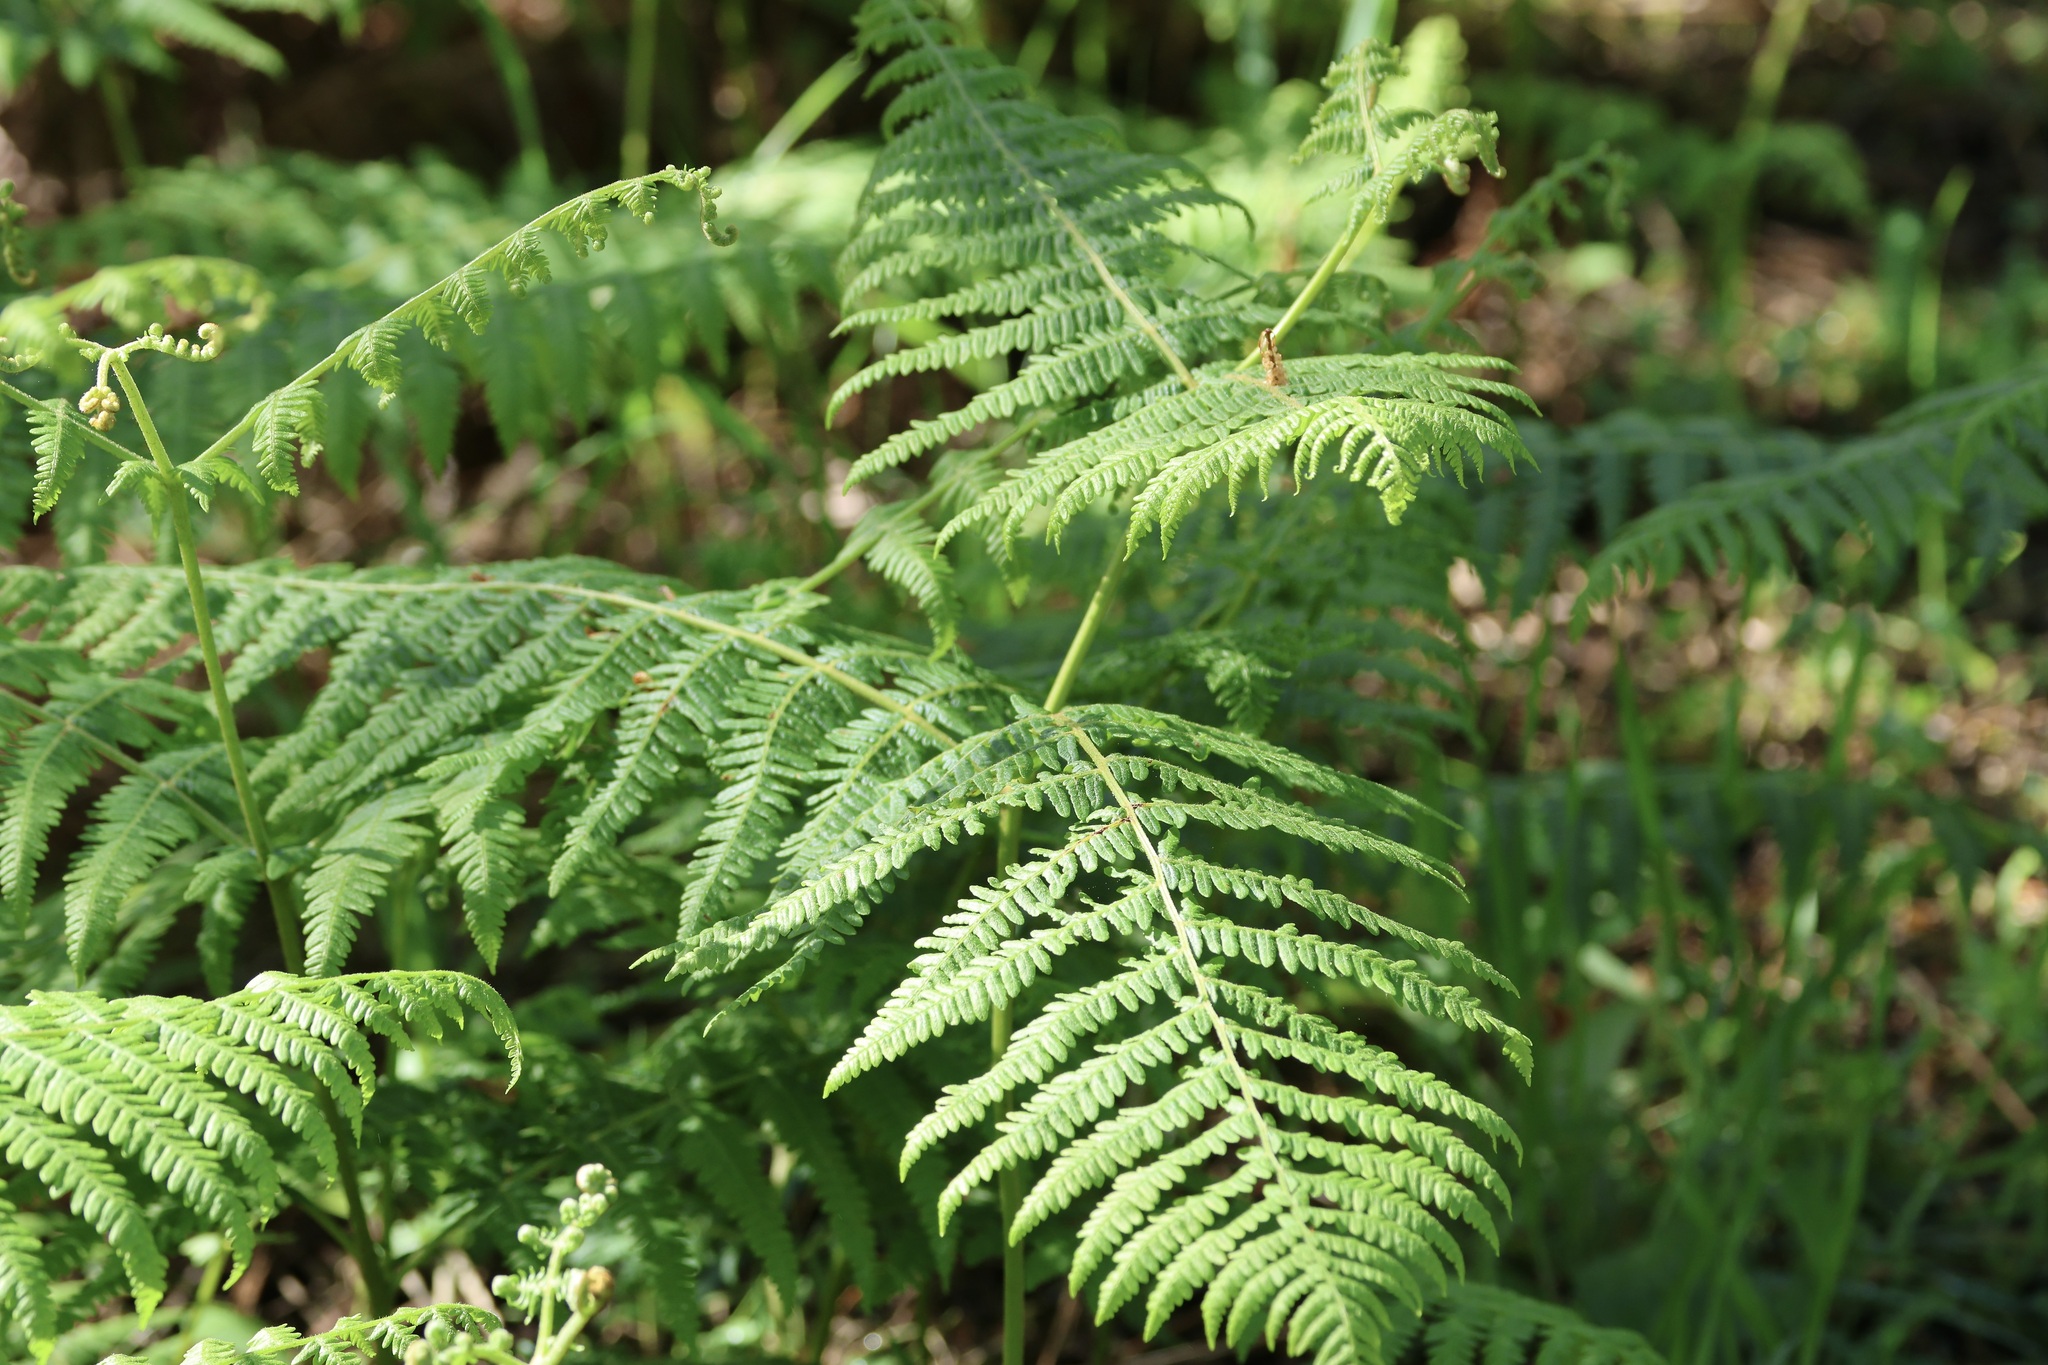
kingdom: Plantae
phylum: Tracheophyta
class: Polypodiopsida
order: Polypodiales
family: Dennstaedtiaceae
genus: Pteridium
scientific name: Pteridium aquilinum
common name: Bracken
